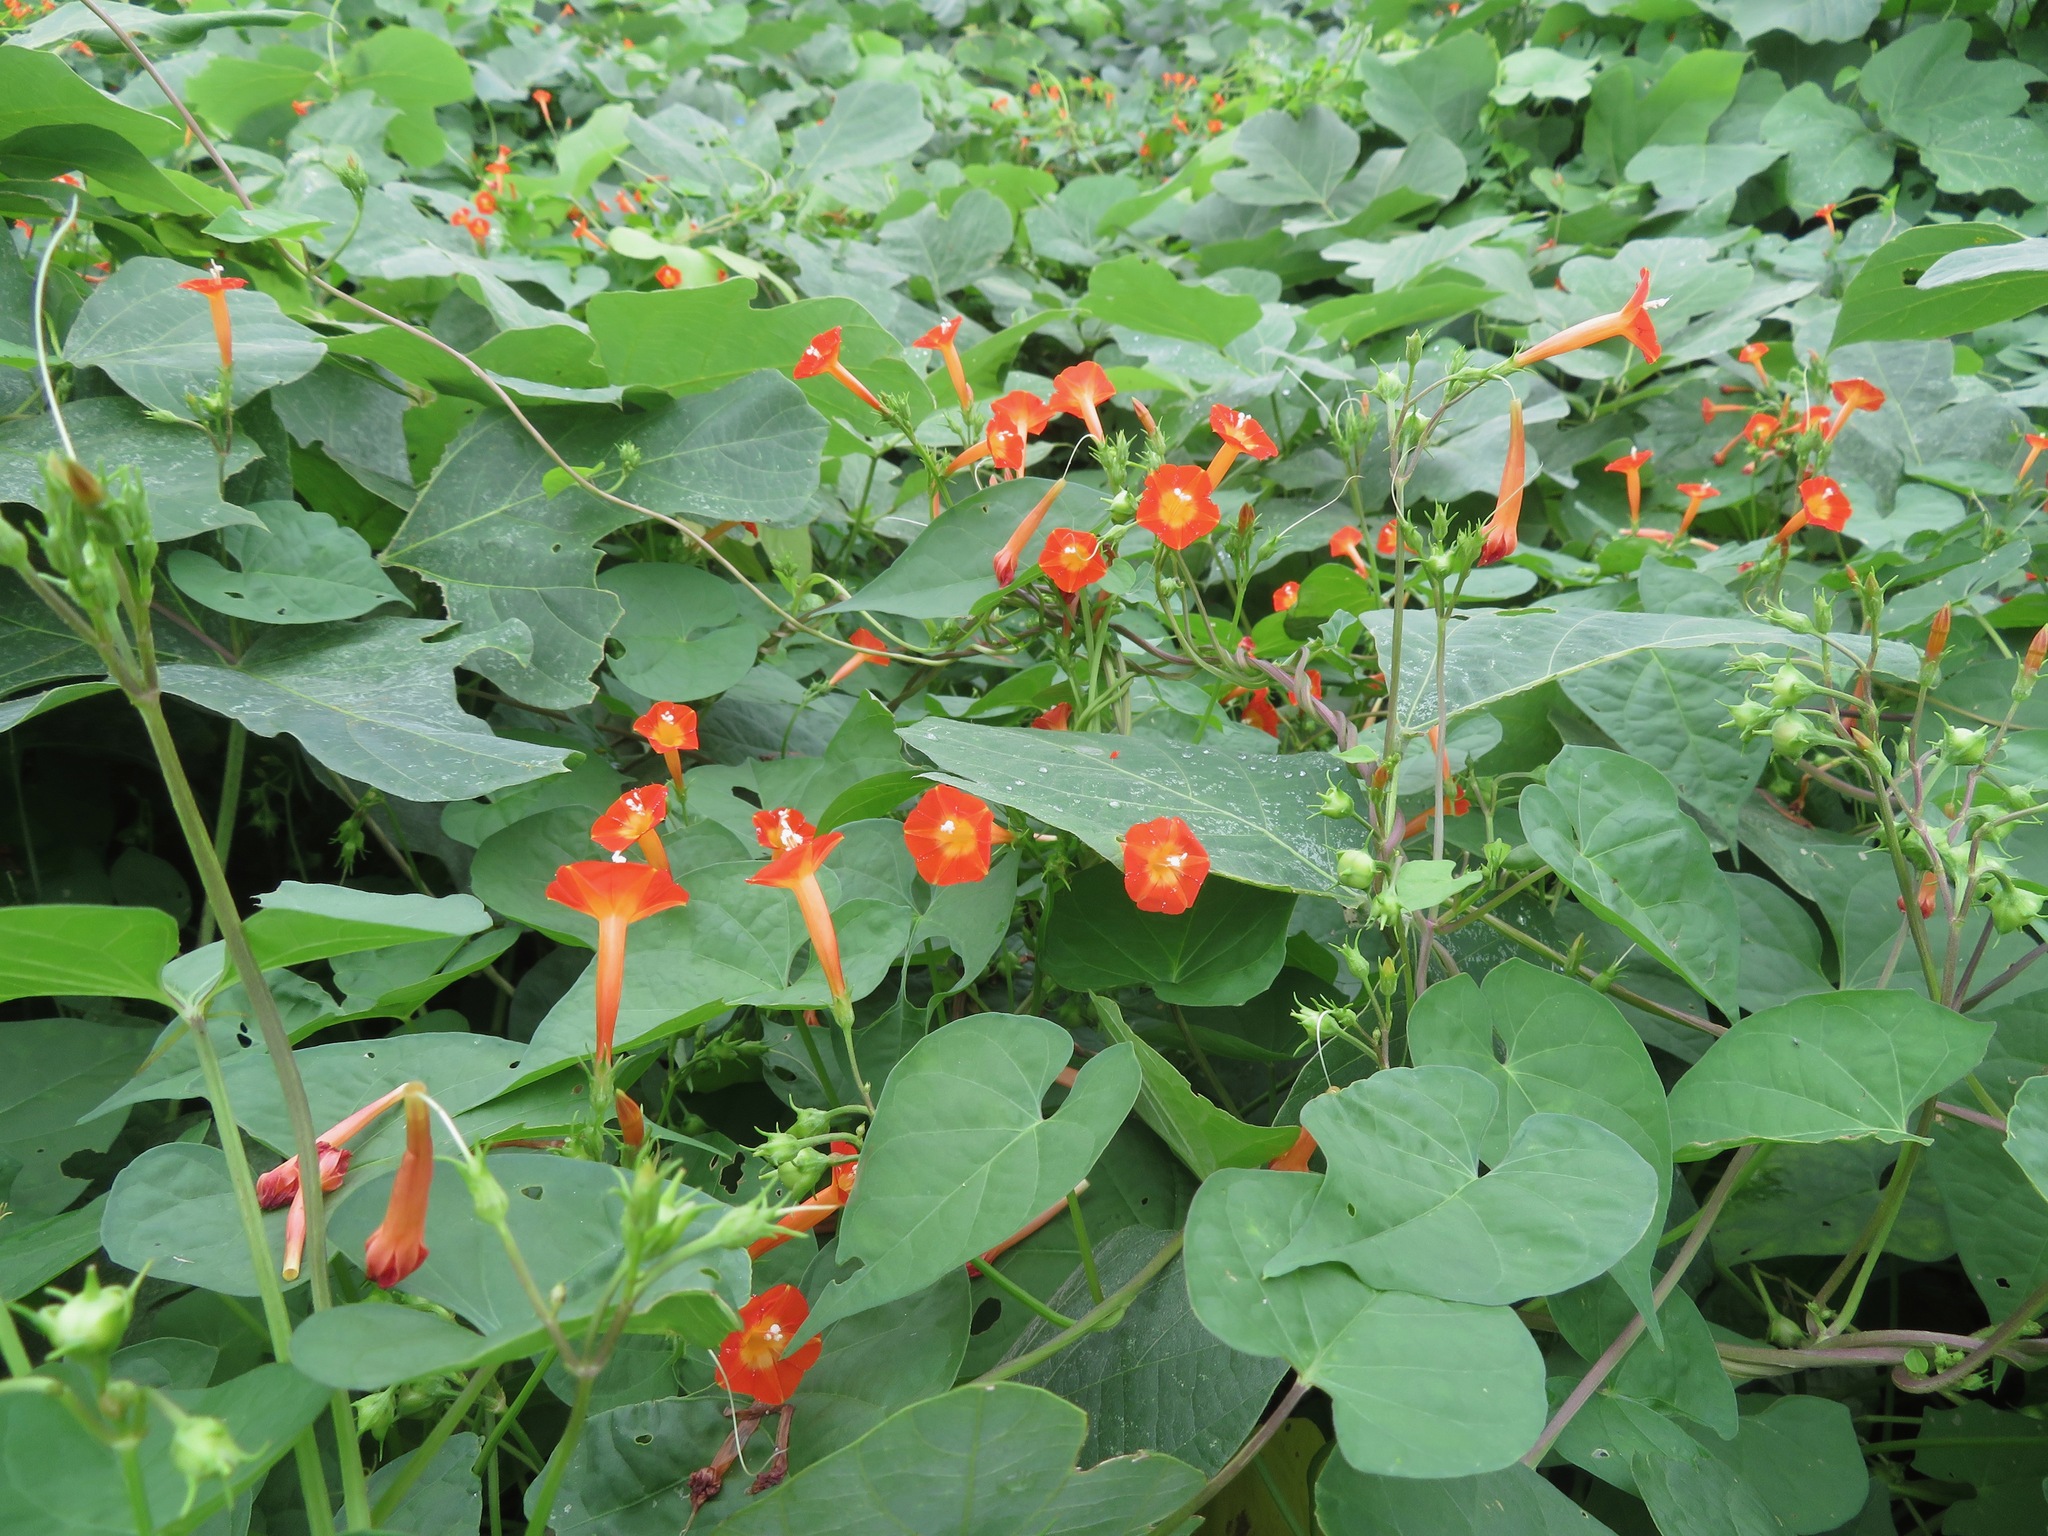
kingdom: Plantae
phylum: Tracheophyta
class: Magnoliopsida
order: Solanales
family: Convolvulaceae
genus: Ipomoea
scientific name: Ipomoea coccinea
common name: Red morning-glory
